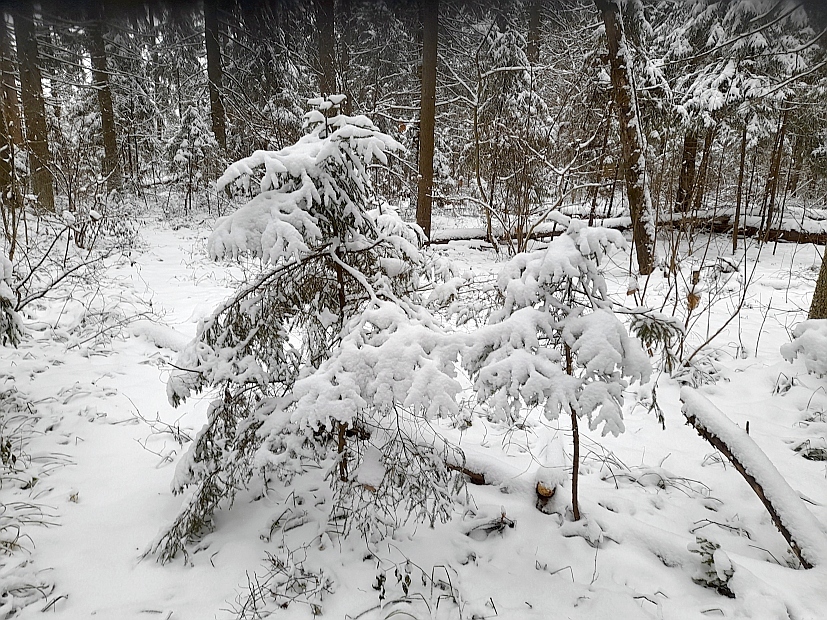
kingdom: Plantae
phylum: Tracheophyta
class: Pinopsida
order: Pinales
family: Pinaceae
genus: Picea
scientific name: Picea abies
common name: Norway spruce
